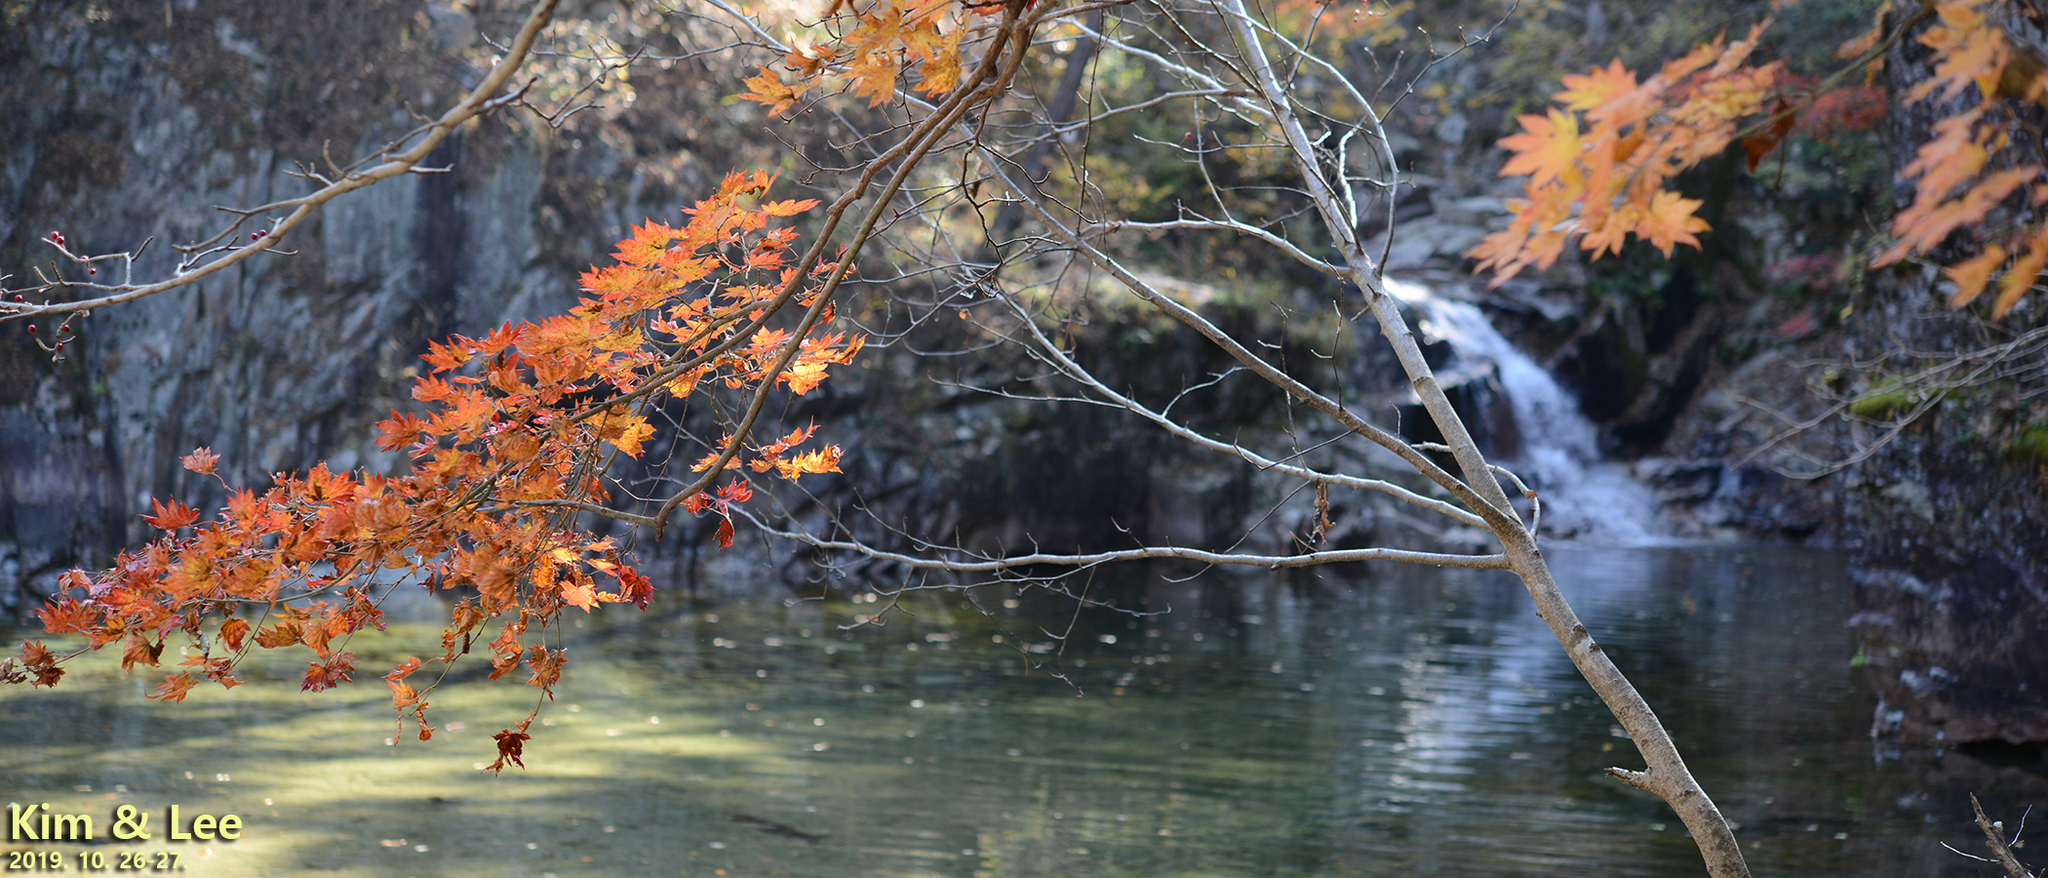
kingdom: Plantae
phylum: Tracheophyta
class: Magnoliopsida
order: Sapindales
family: Sapindaceae
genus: Acer
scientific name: Acer palmatum
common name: Japanese maple
